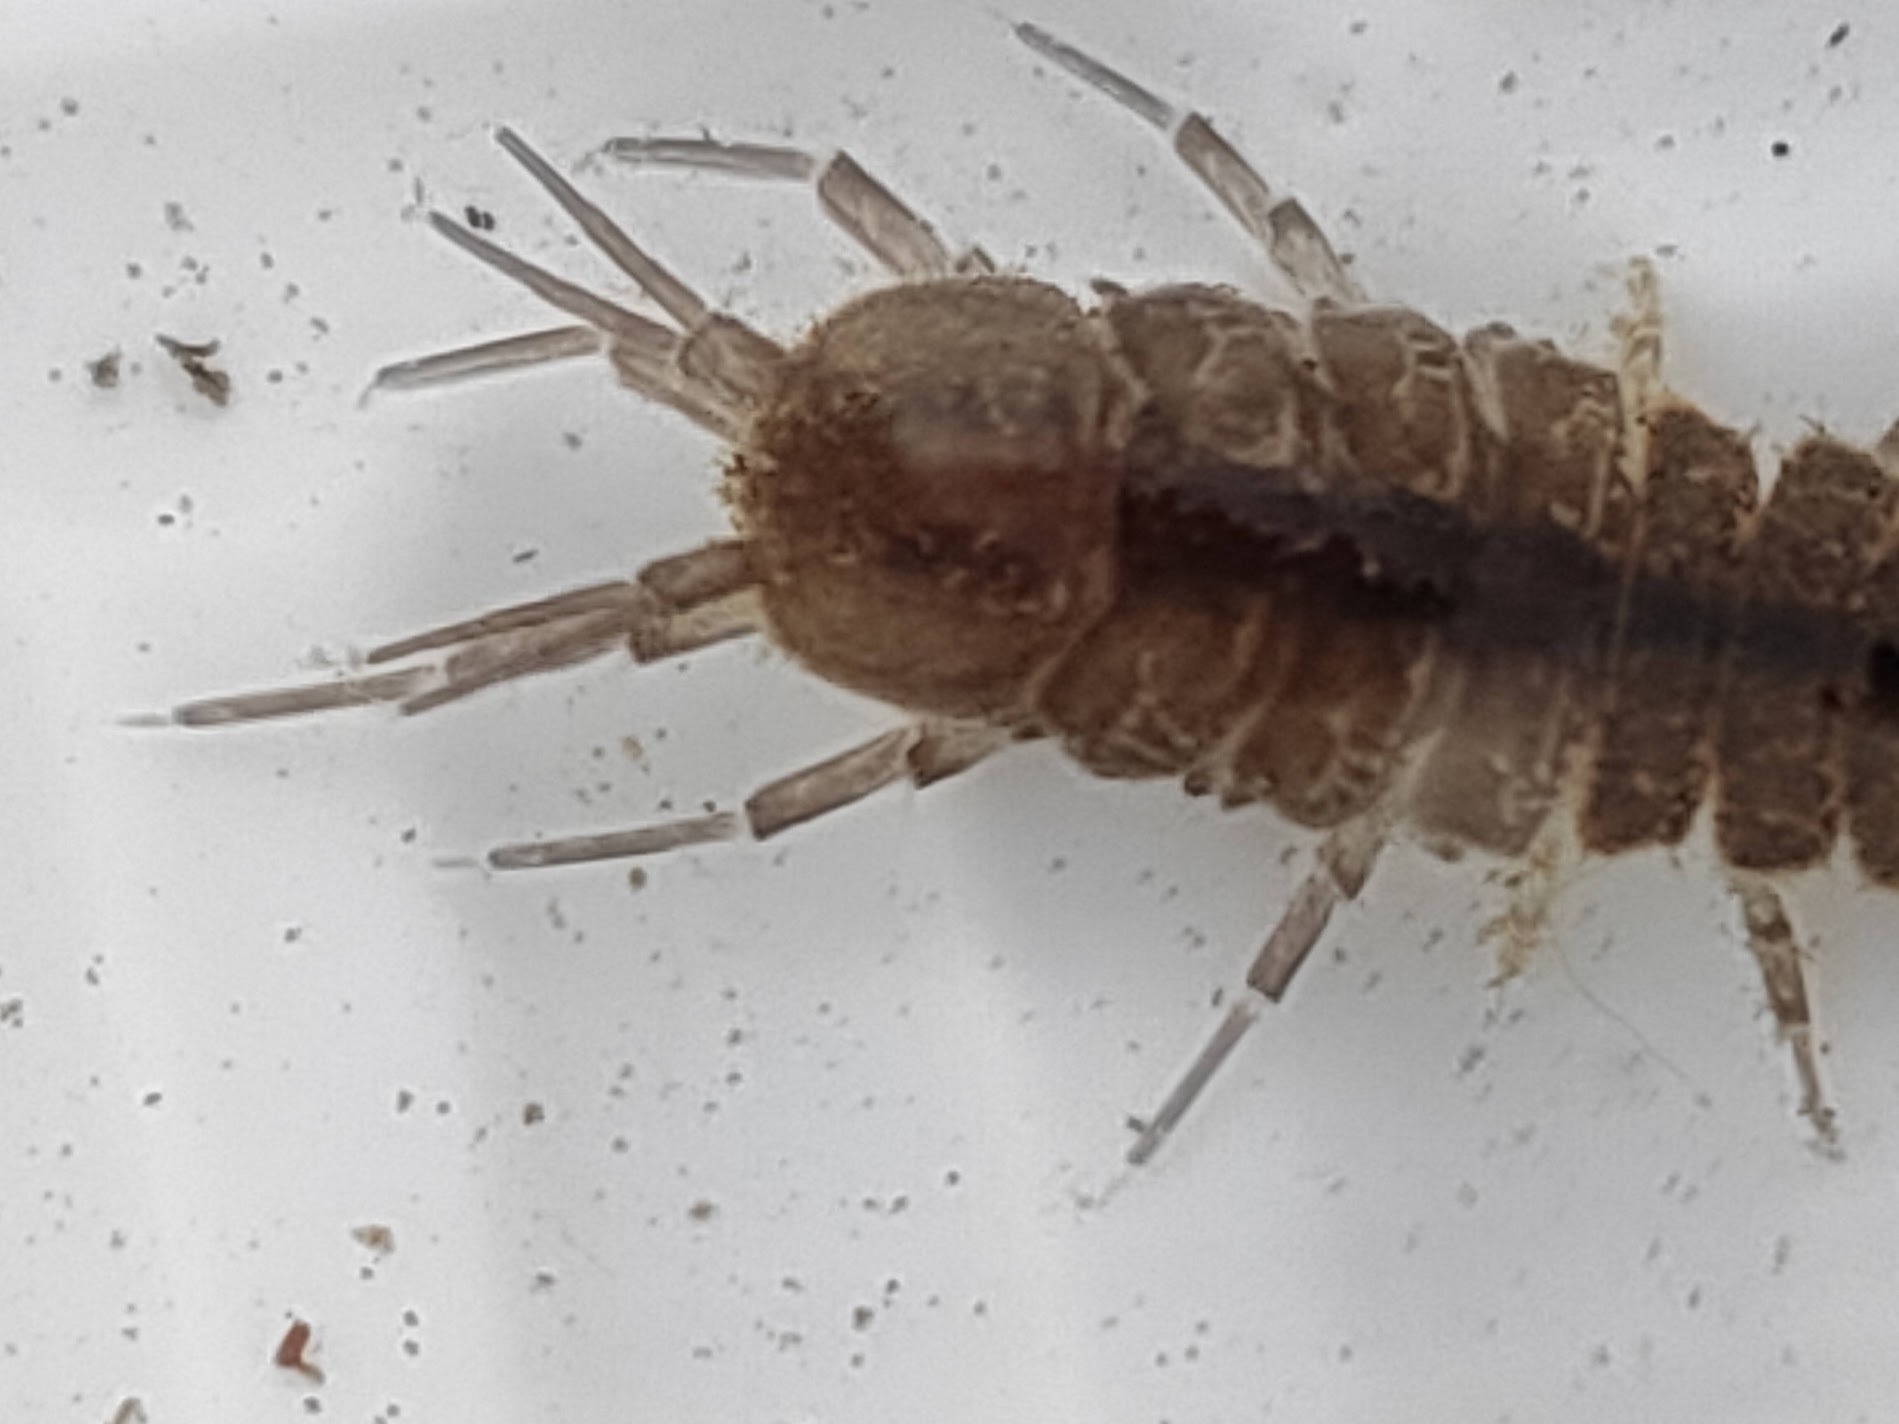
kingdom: Animalia
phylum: Arthropoda
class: Malacostraca
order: Isopoda
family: Asellidae
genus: Asellus
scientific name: Asellus hilgendorfii
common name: Isopod
